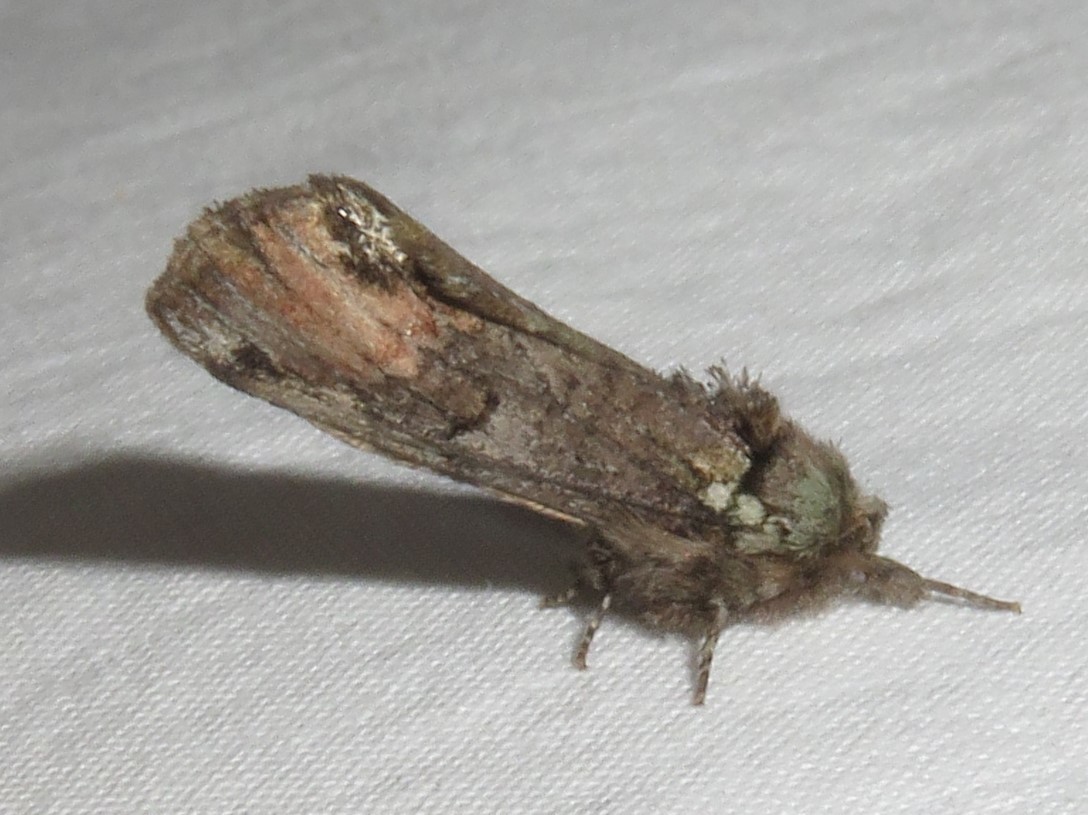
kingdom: Animalia
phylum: Arthropoda
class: Insecta
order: Lepidoptera
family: Notodontidae
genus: Schizura
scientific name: Schizura
